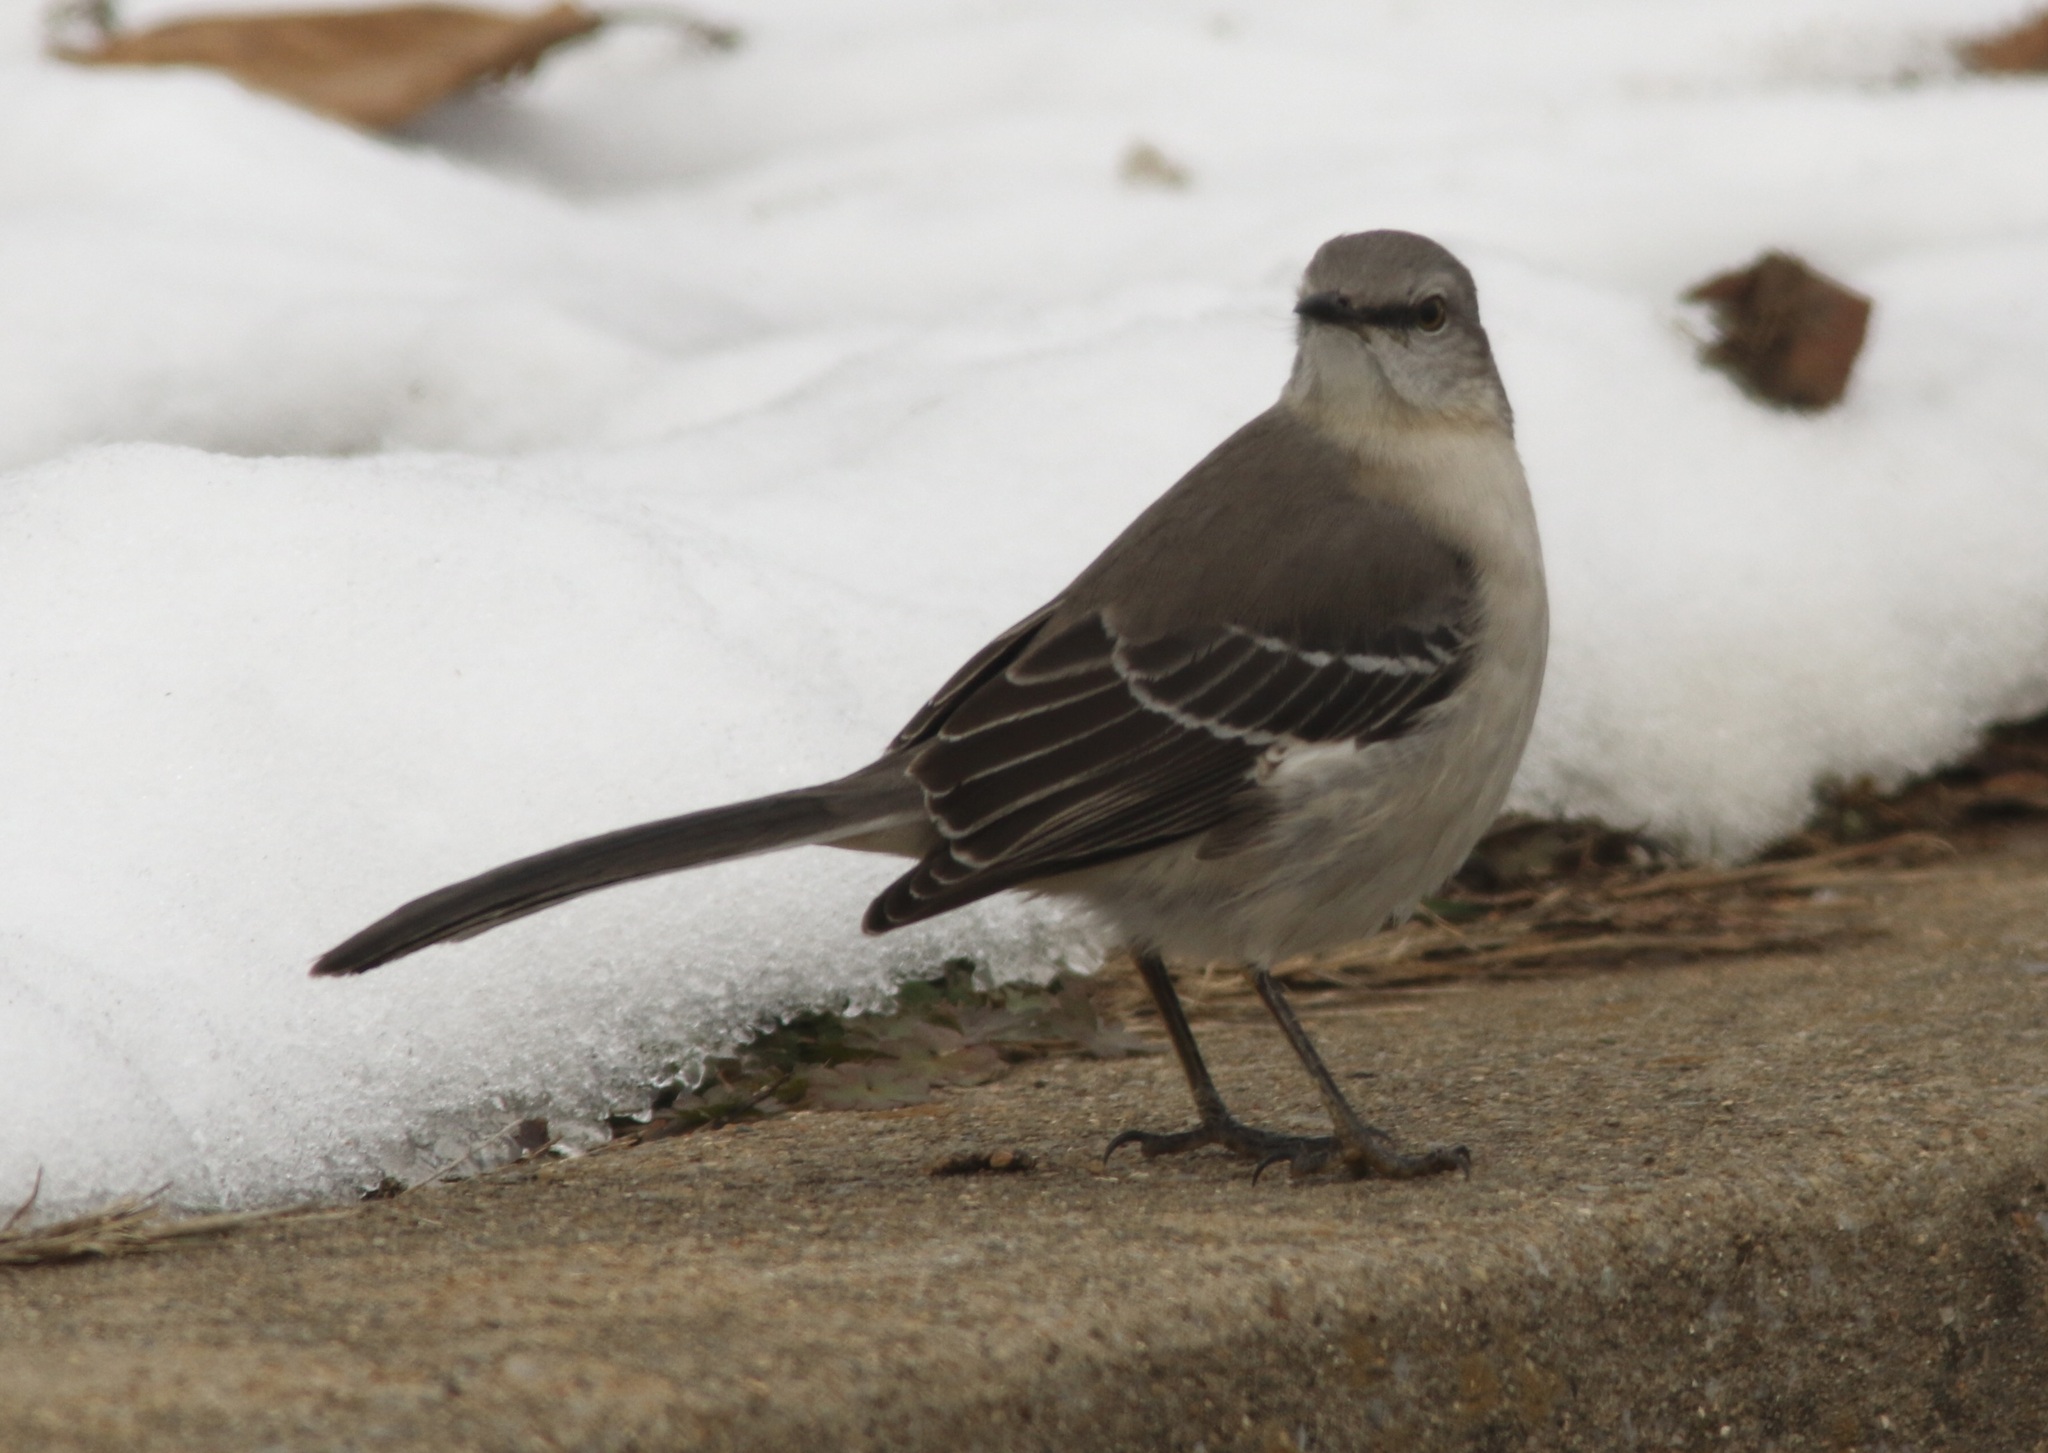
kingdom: Animalia
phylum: Chordata
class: Aves
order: Passeriformes
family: Mimidae
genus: Mimus
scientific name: Mimus polyglottos
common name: Northern mockingbird
